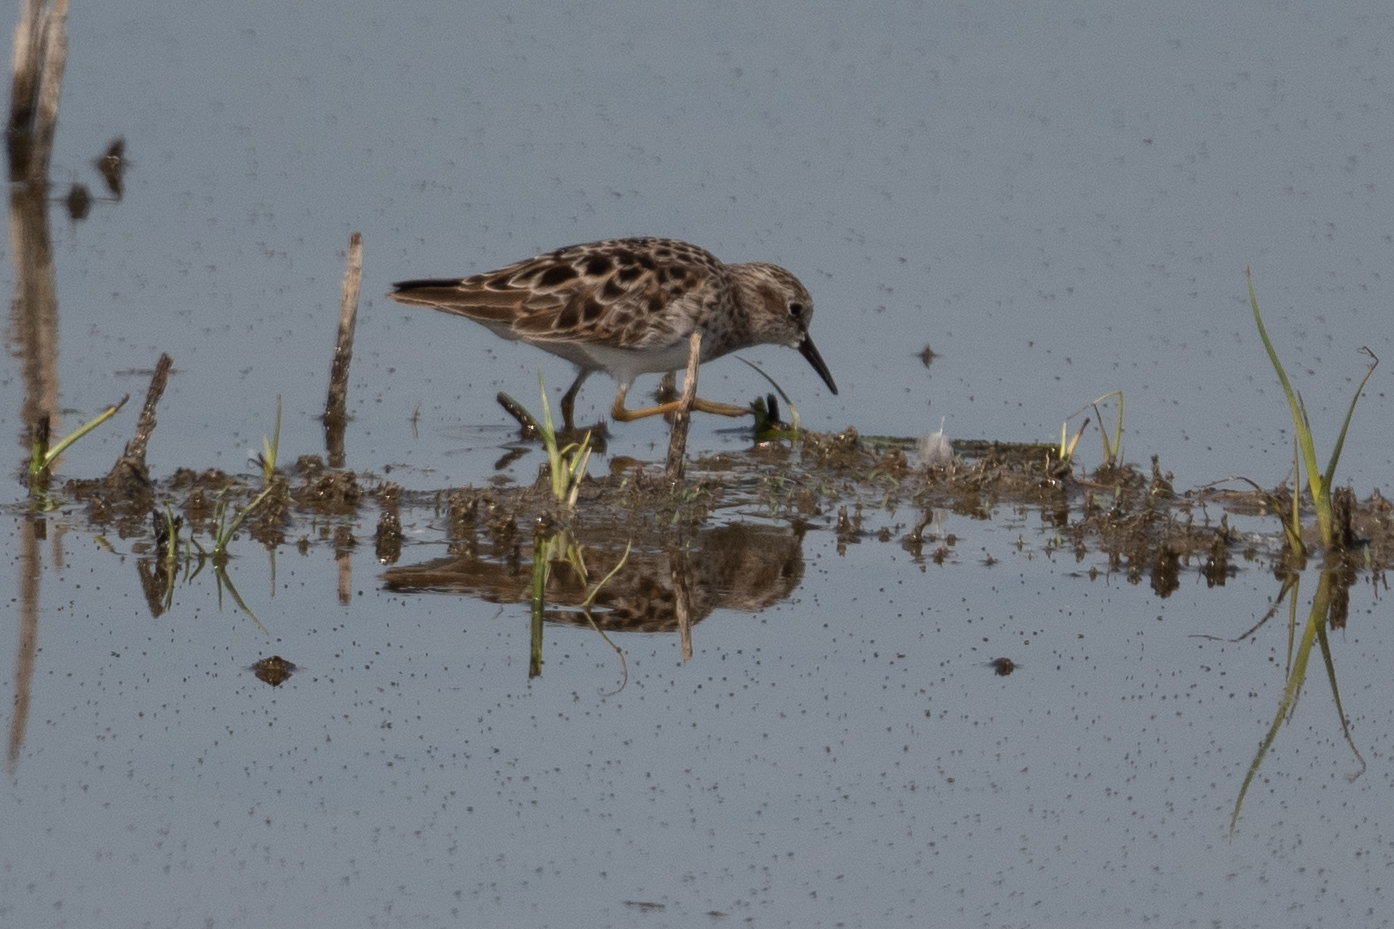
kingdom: Animalia
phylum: Chordata
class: Aves
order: Charadriiformes
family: Scolopacidae
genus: Calidris
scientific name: Calidris minutilla
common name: Least sandpiper
